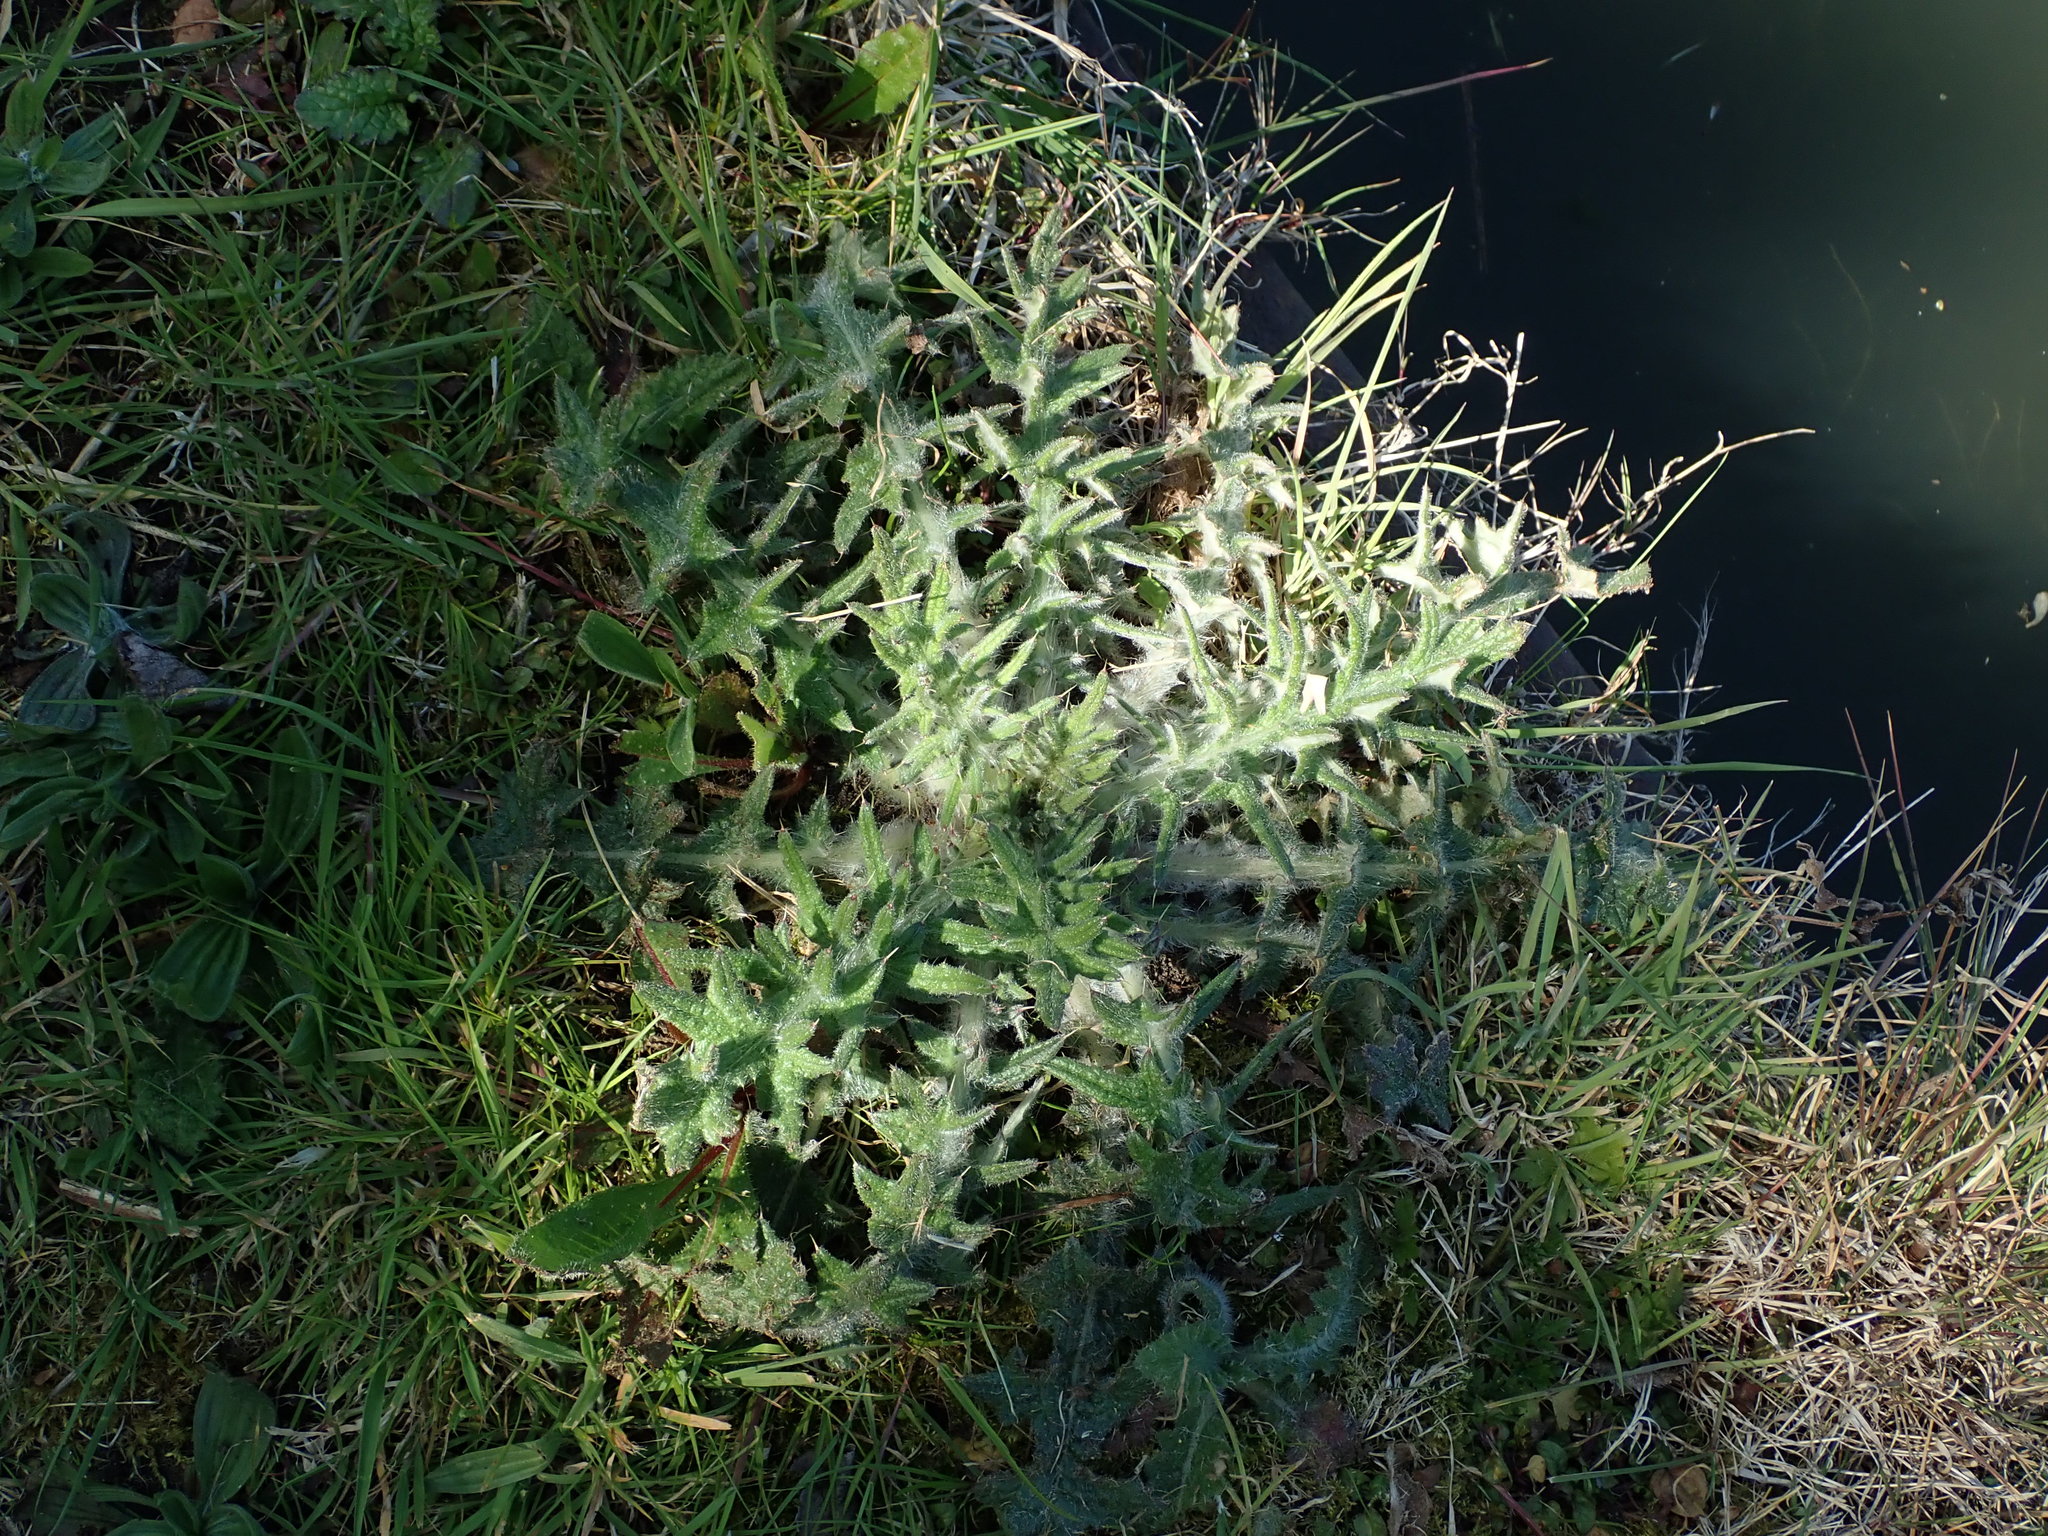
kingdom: Plantae
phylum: Tracheophyta
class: Magnoliopsida
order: Asterales
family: Asteraceae
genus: Cirsium
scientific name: Cirsium vulgare
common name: Bull thistle
